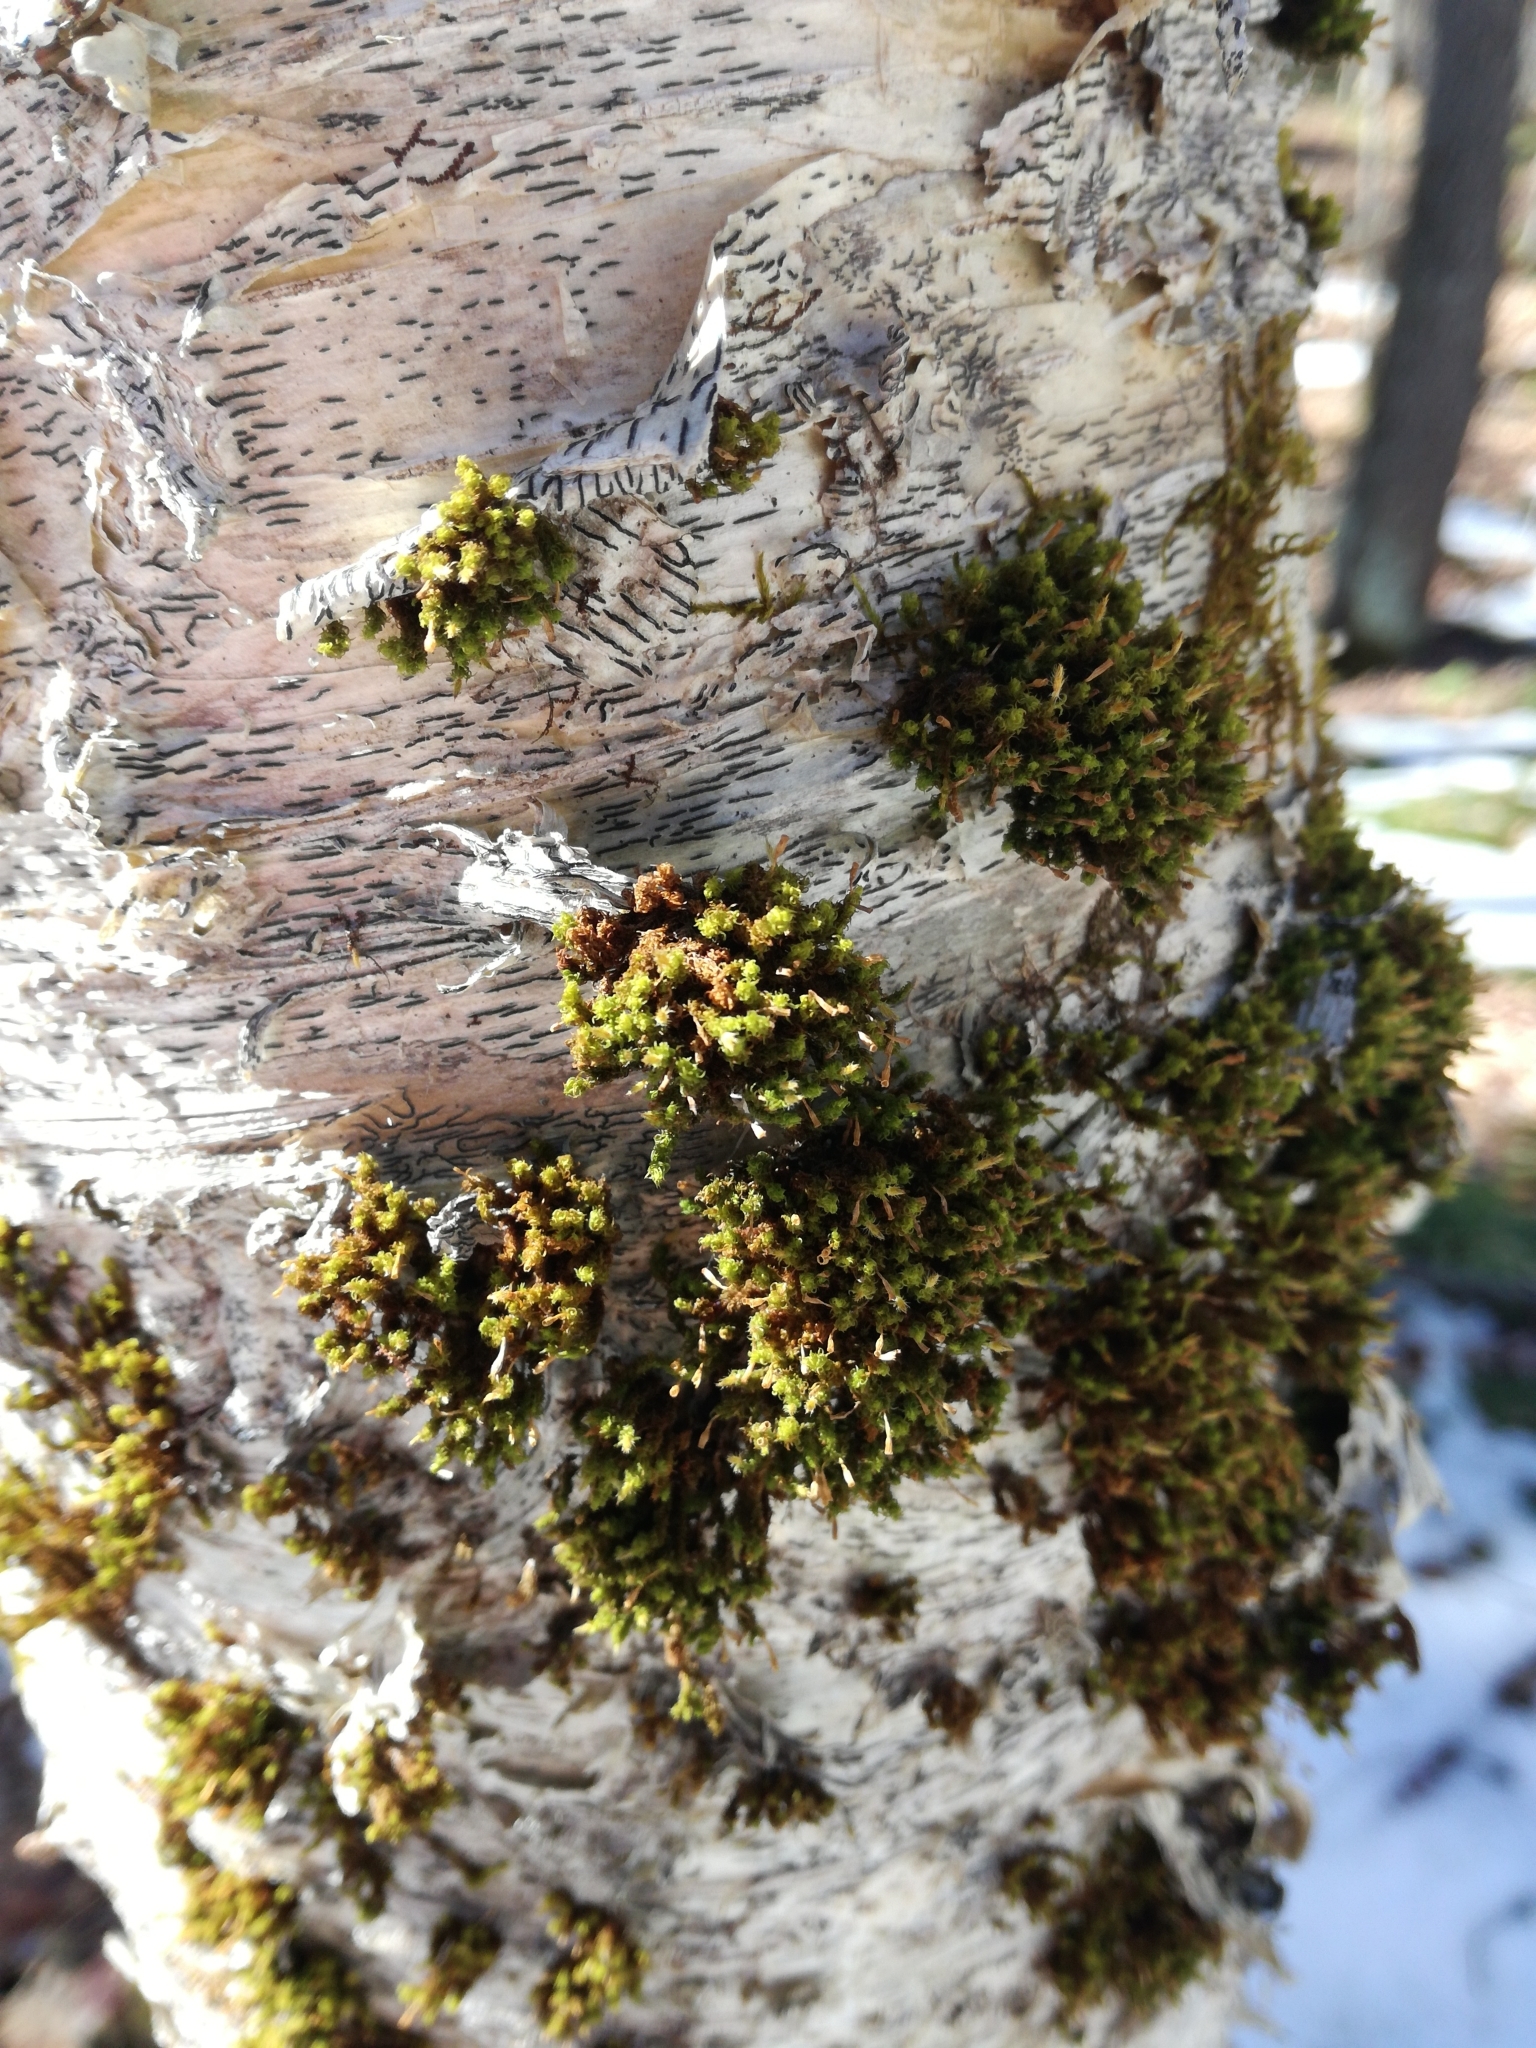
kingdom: Plantae
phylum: Bryophyta
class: Bryopsida
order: Orthotrichales
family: Orthotrichaceae
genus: Ulota
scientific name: Ulota crispa
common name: Crisped pincushion moss
